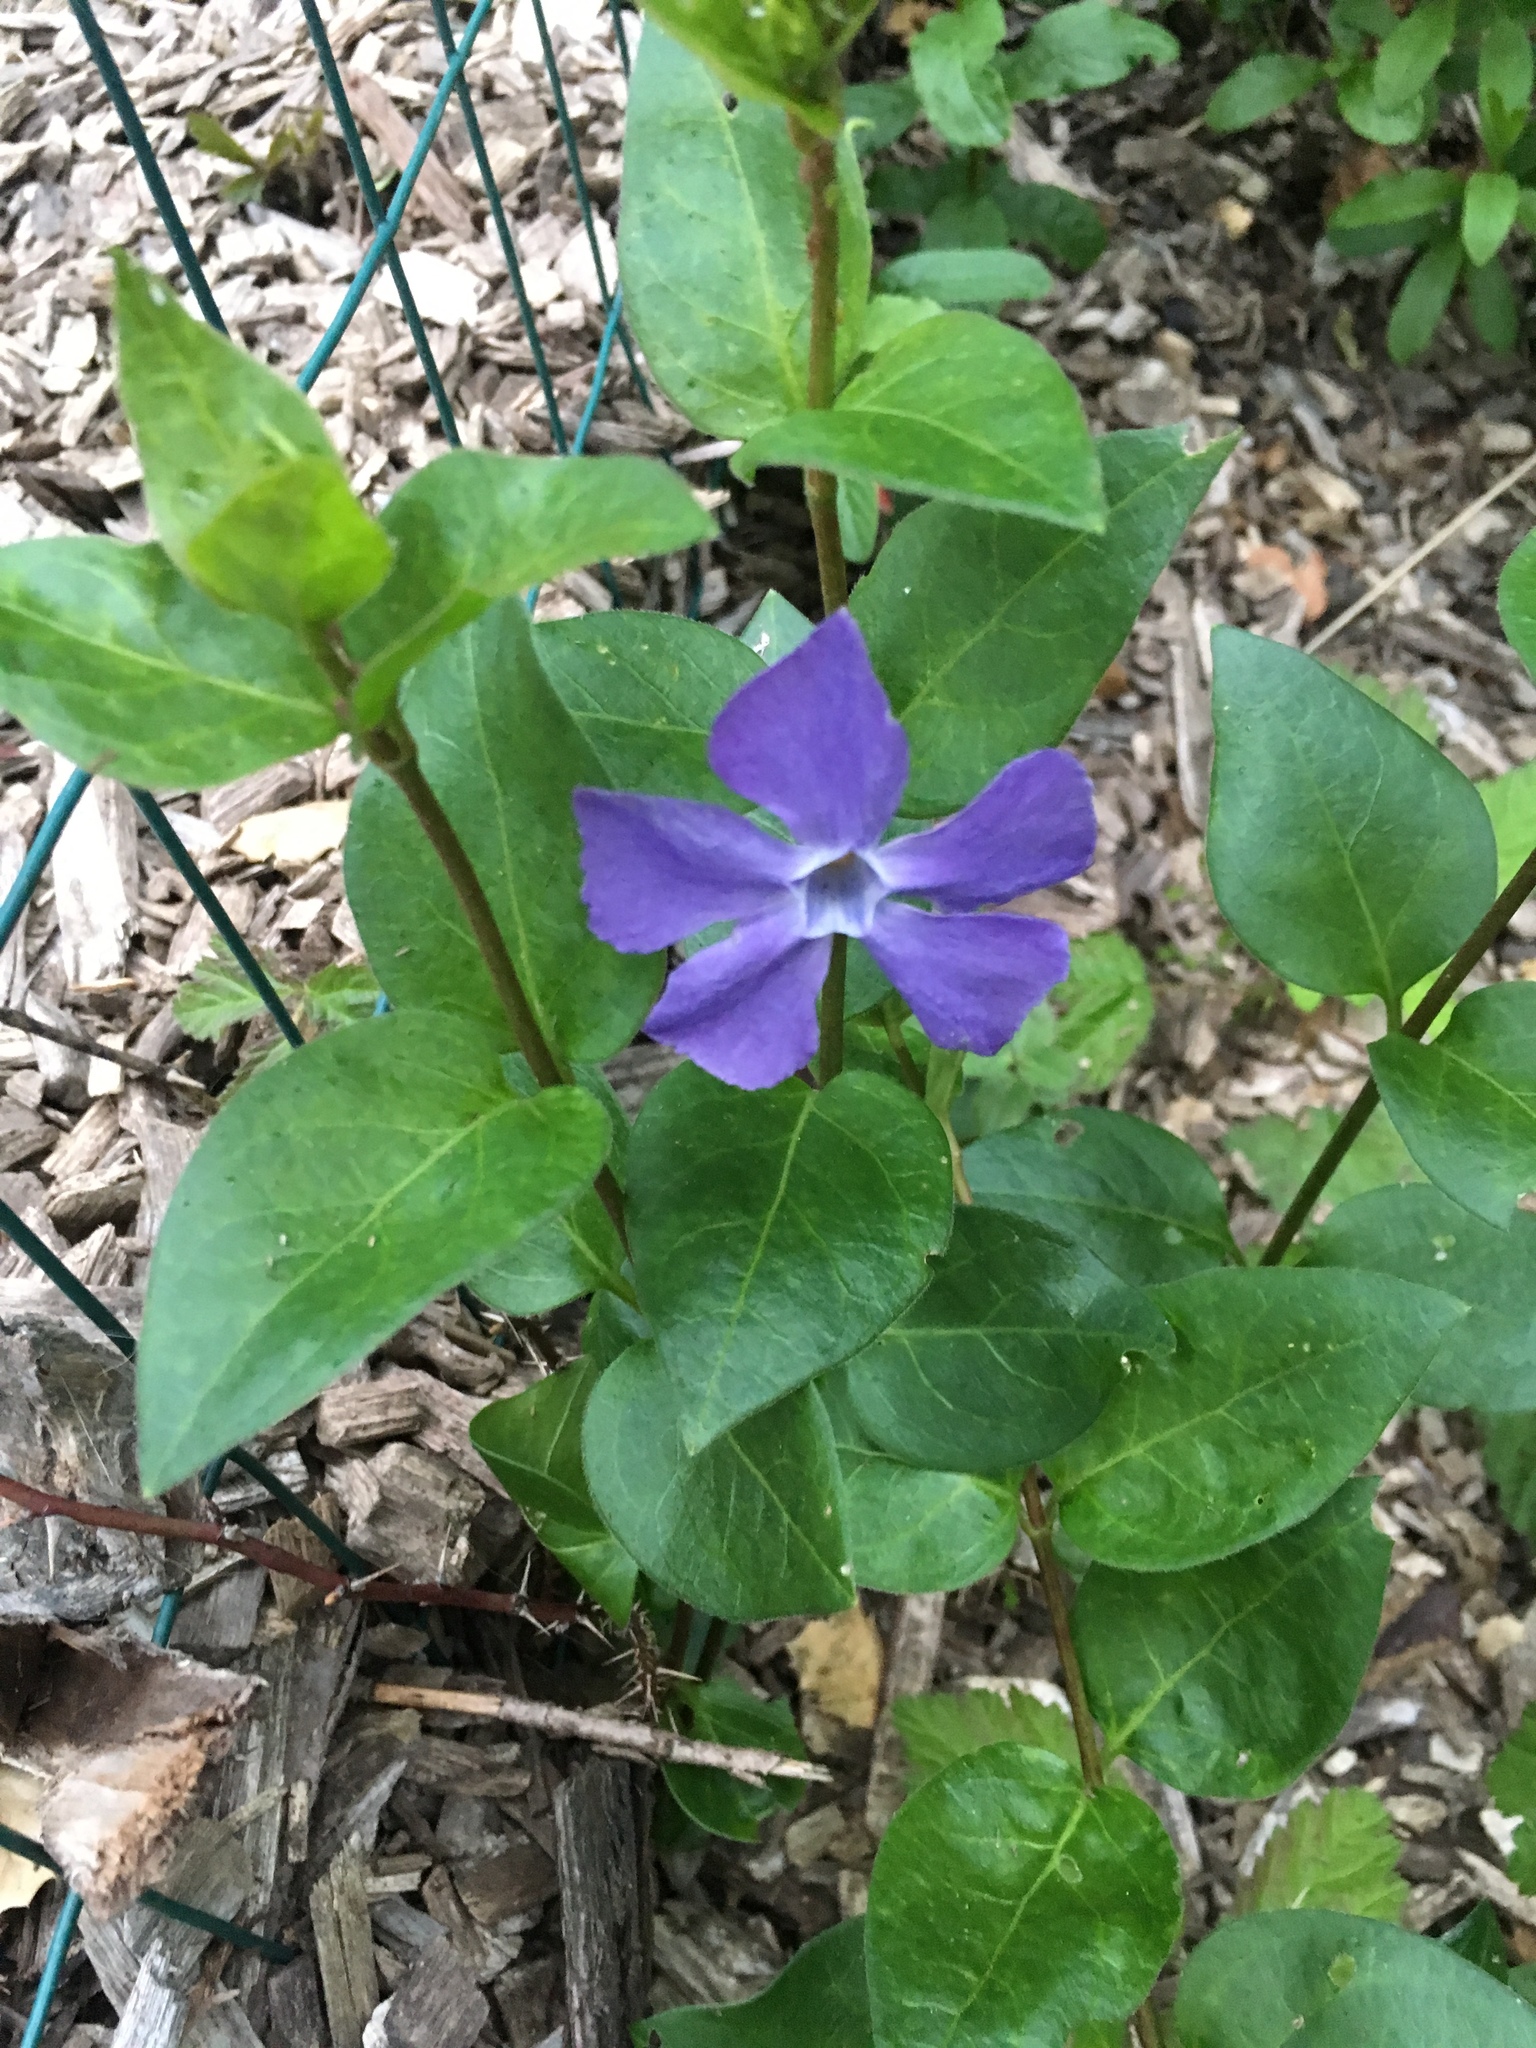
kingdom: Plantae
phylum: Tracheophyta
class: Magnoliopsida
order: Gentianales
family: Apocynaceae
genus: Vinca
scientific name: Vinca major
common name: Greater periwinkle
